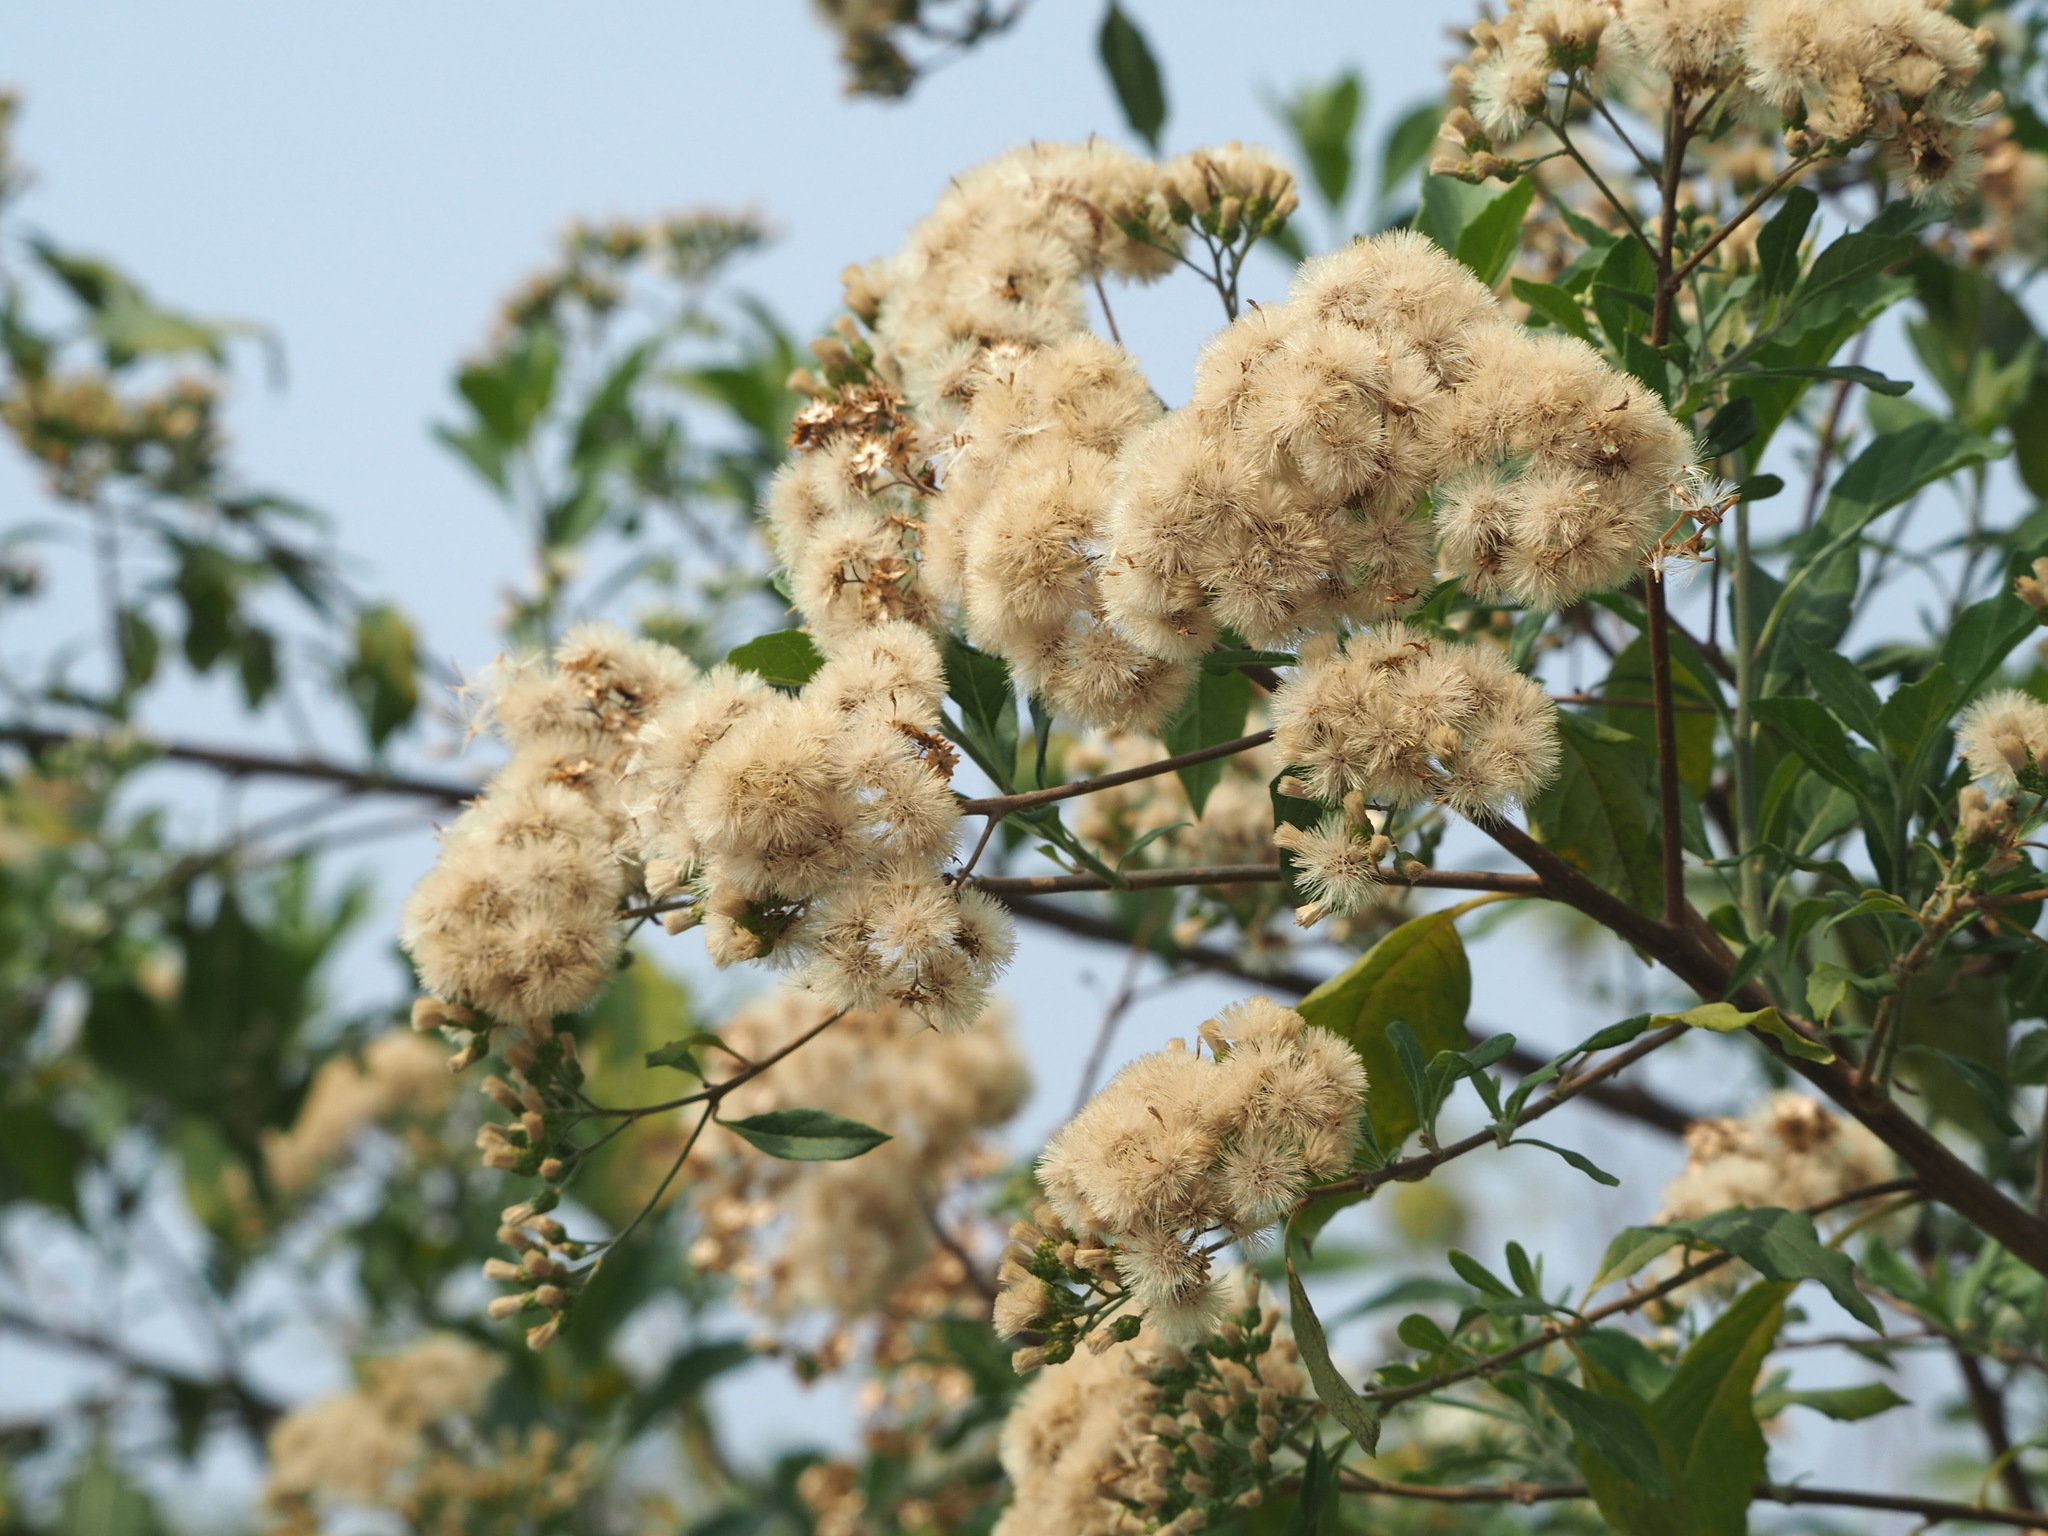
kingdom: Plantae
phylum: Tracheophyta
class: Magnoliopsida
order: Asterales
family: Asteraceae
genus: Gymnanthemum
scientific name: Gymnanthemum amygdalinum
